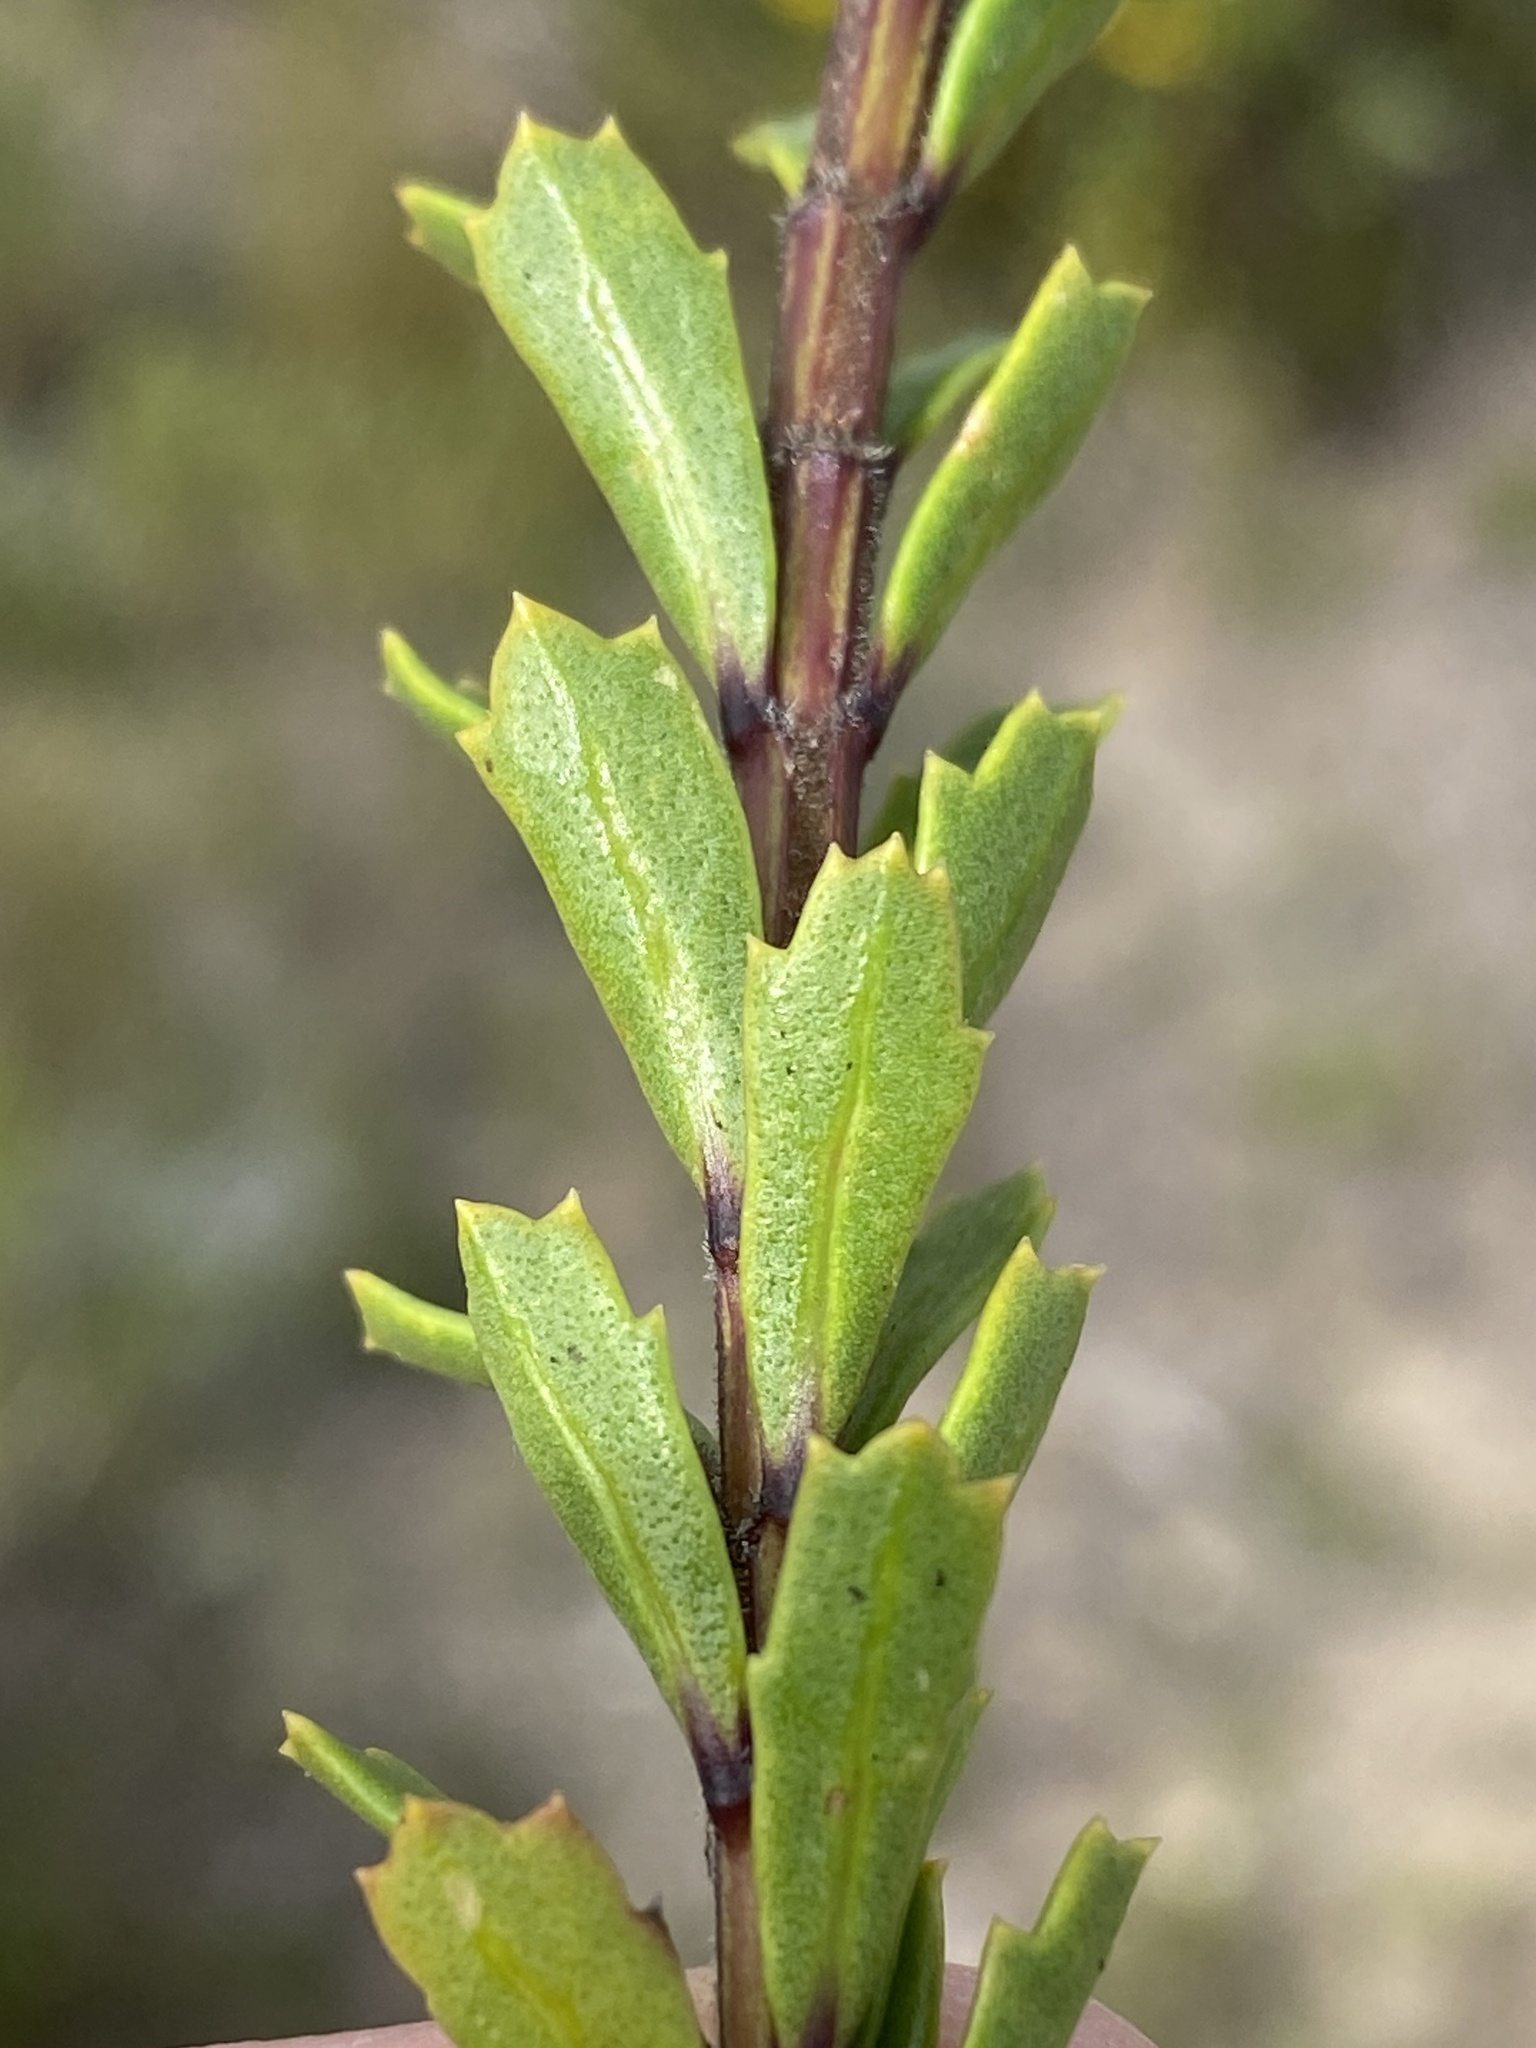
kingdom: Plantae
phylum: Tracheophyta
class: Magnoliopsida
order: Lamiales
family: Verbenaceae
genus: Chascanum
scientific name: Chascanum cernuum
